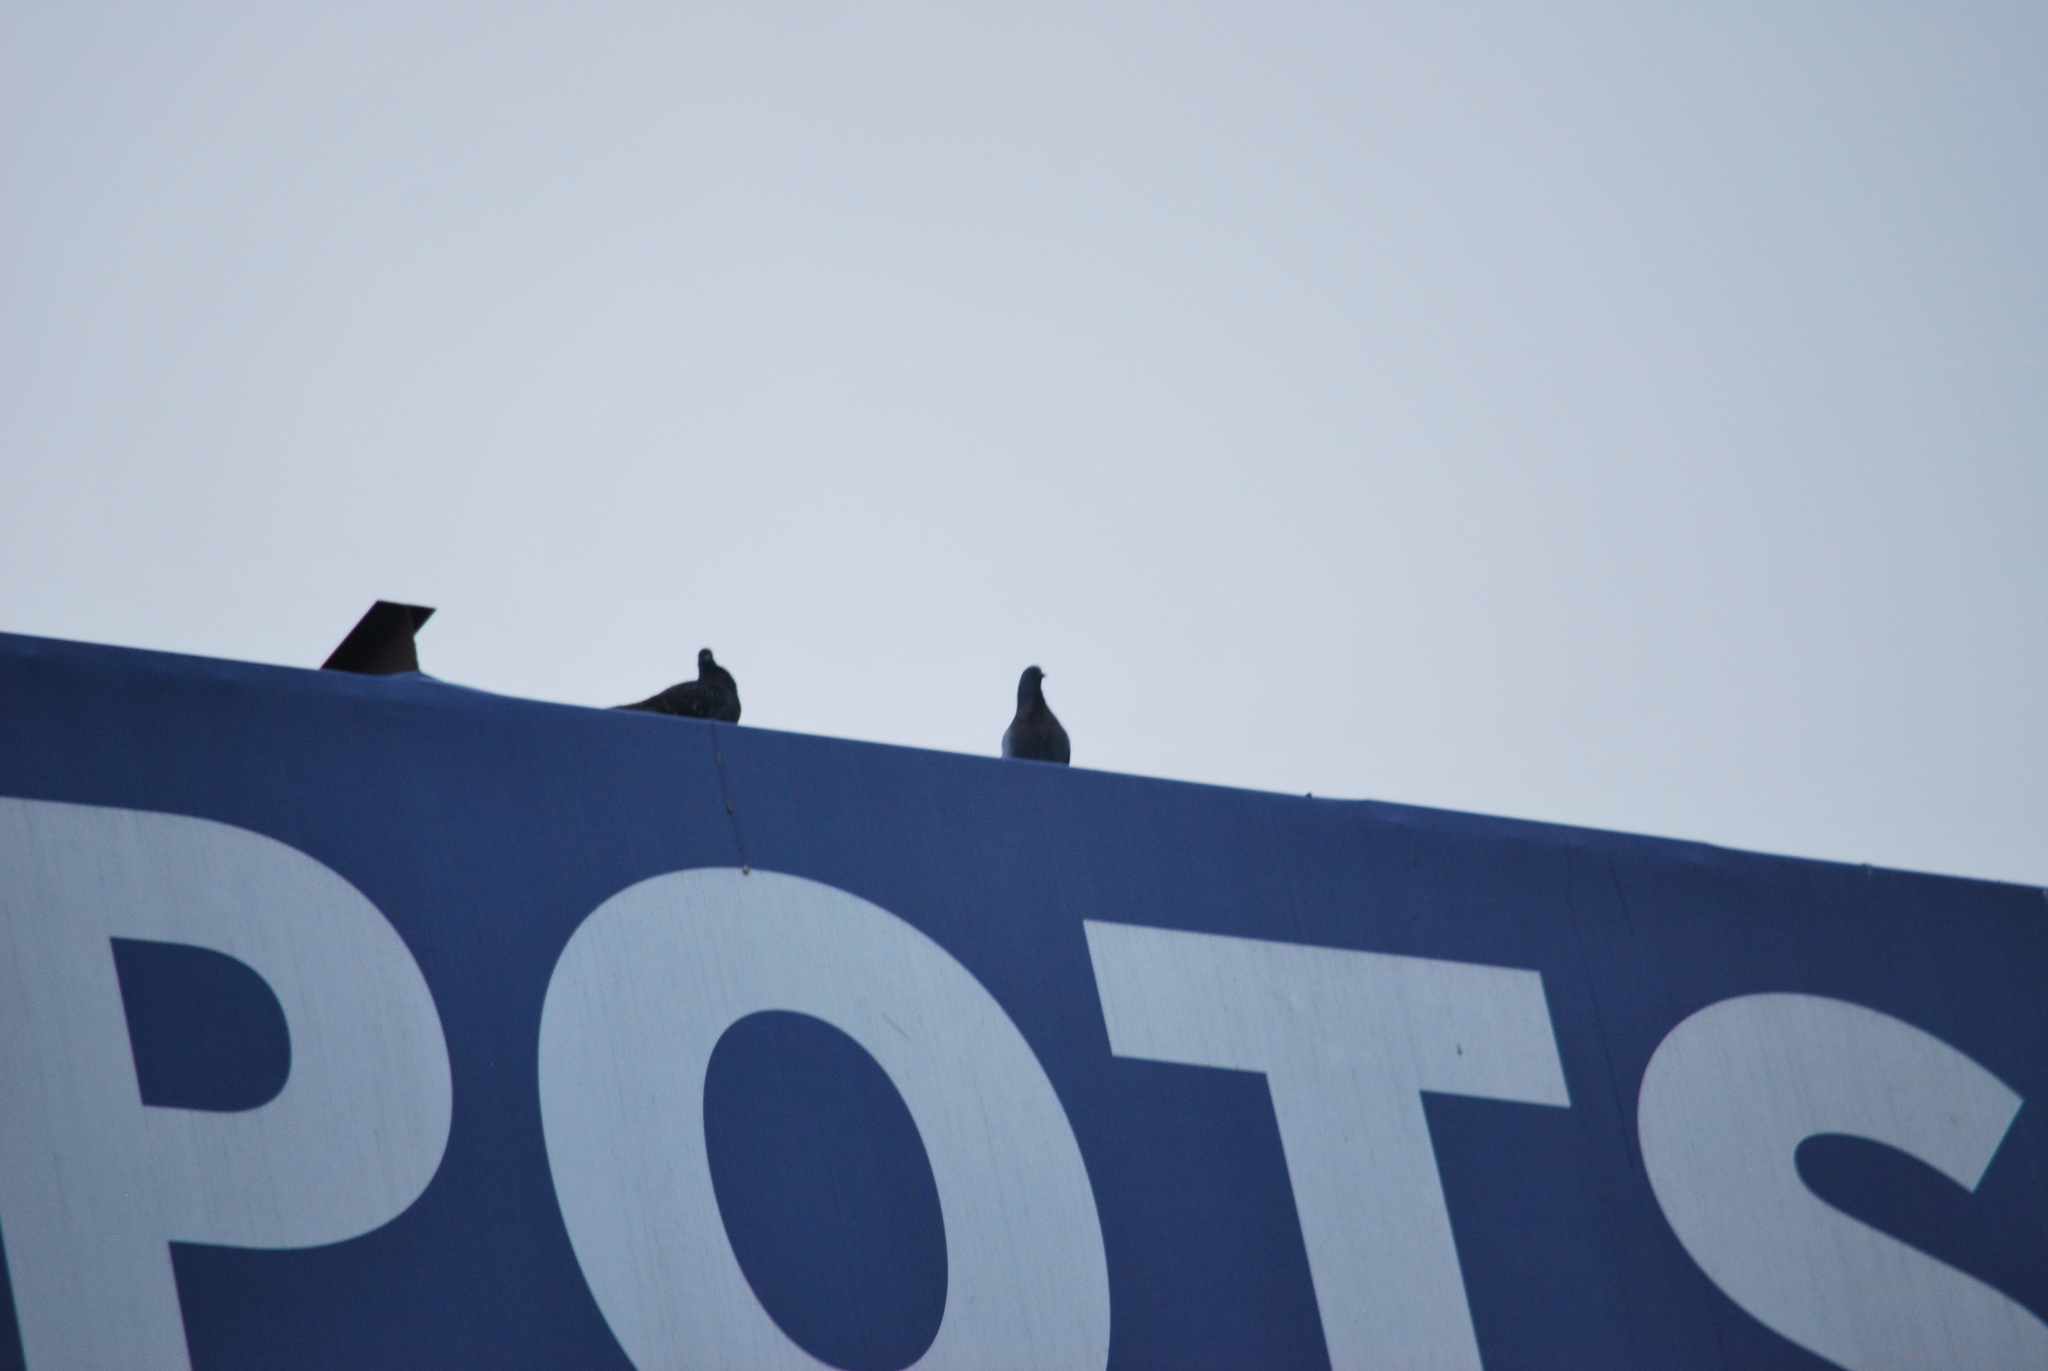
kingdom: Animalia
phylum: Chordata
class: Aves
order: Columbiformes
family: Columbidae
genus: Columba
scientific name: Columba livia
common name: Rock pigeon
